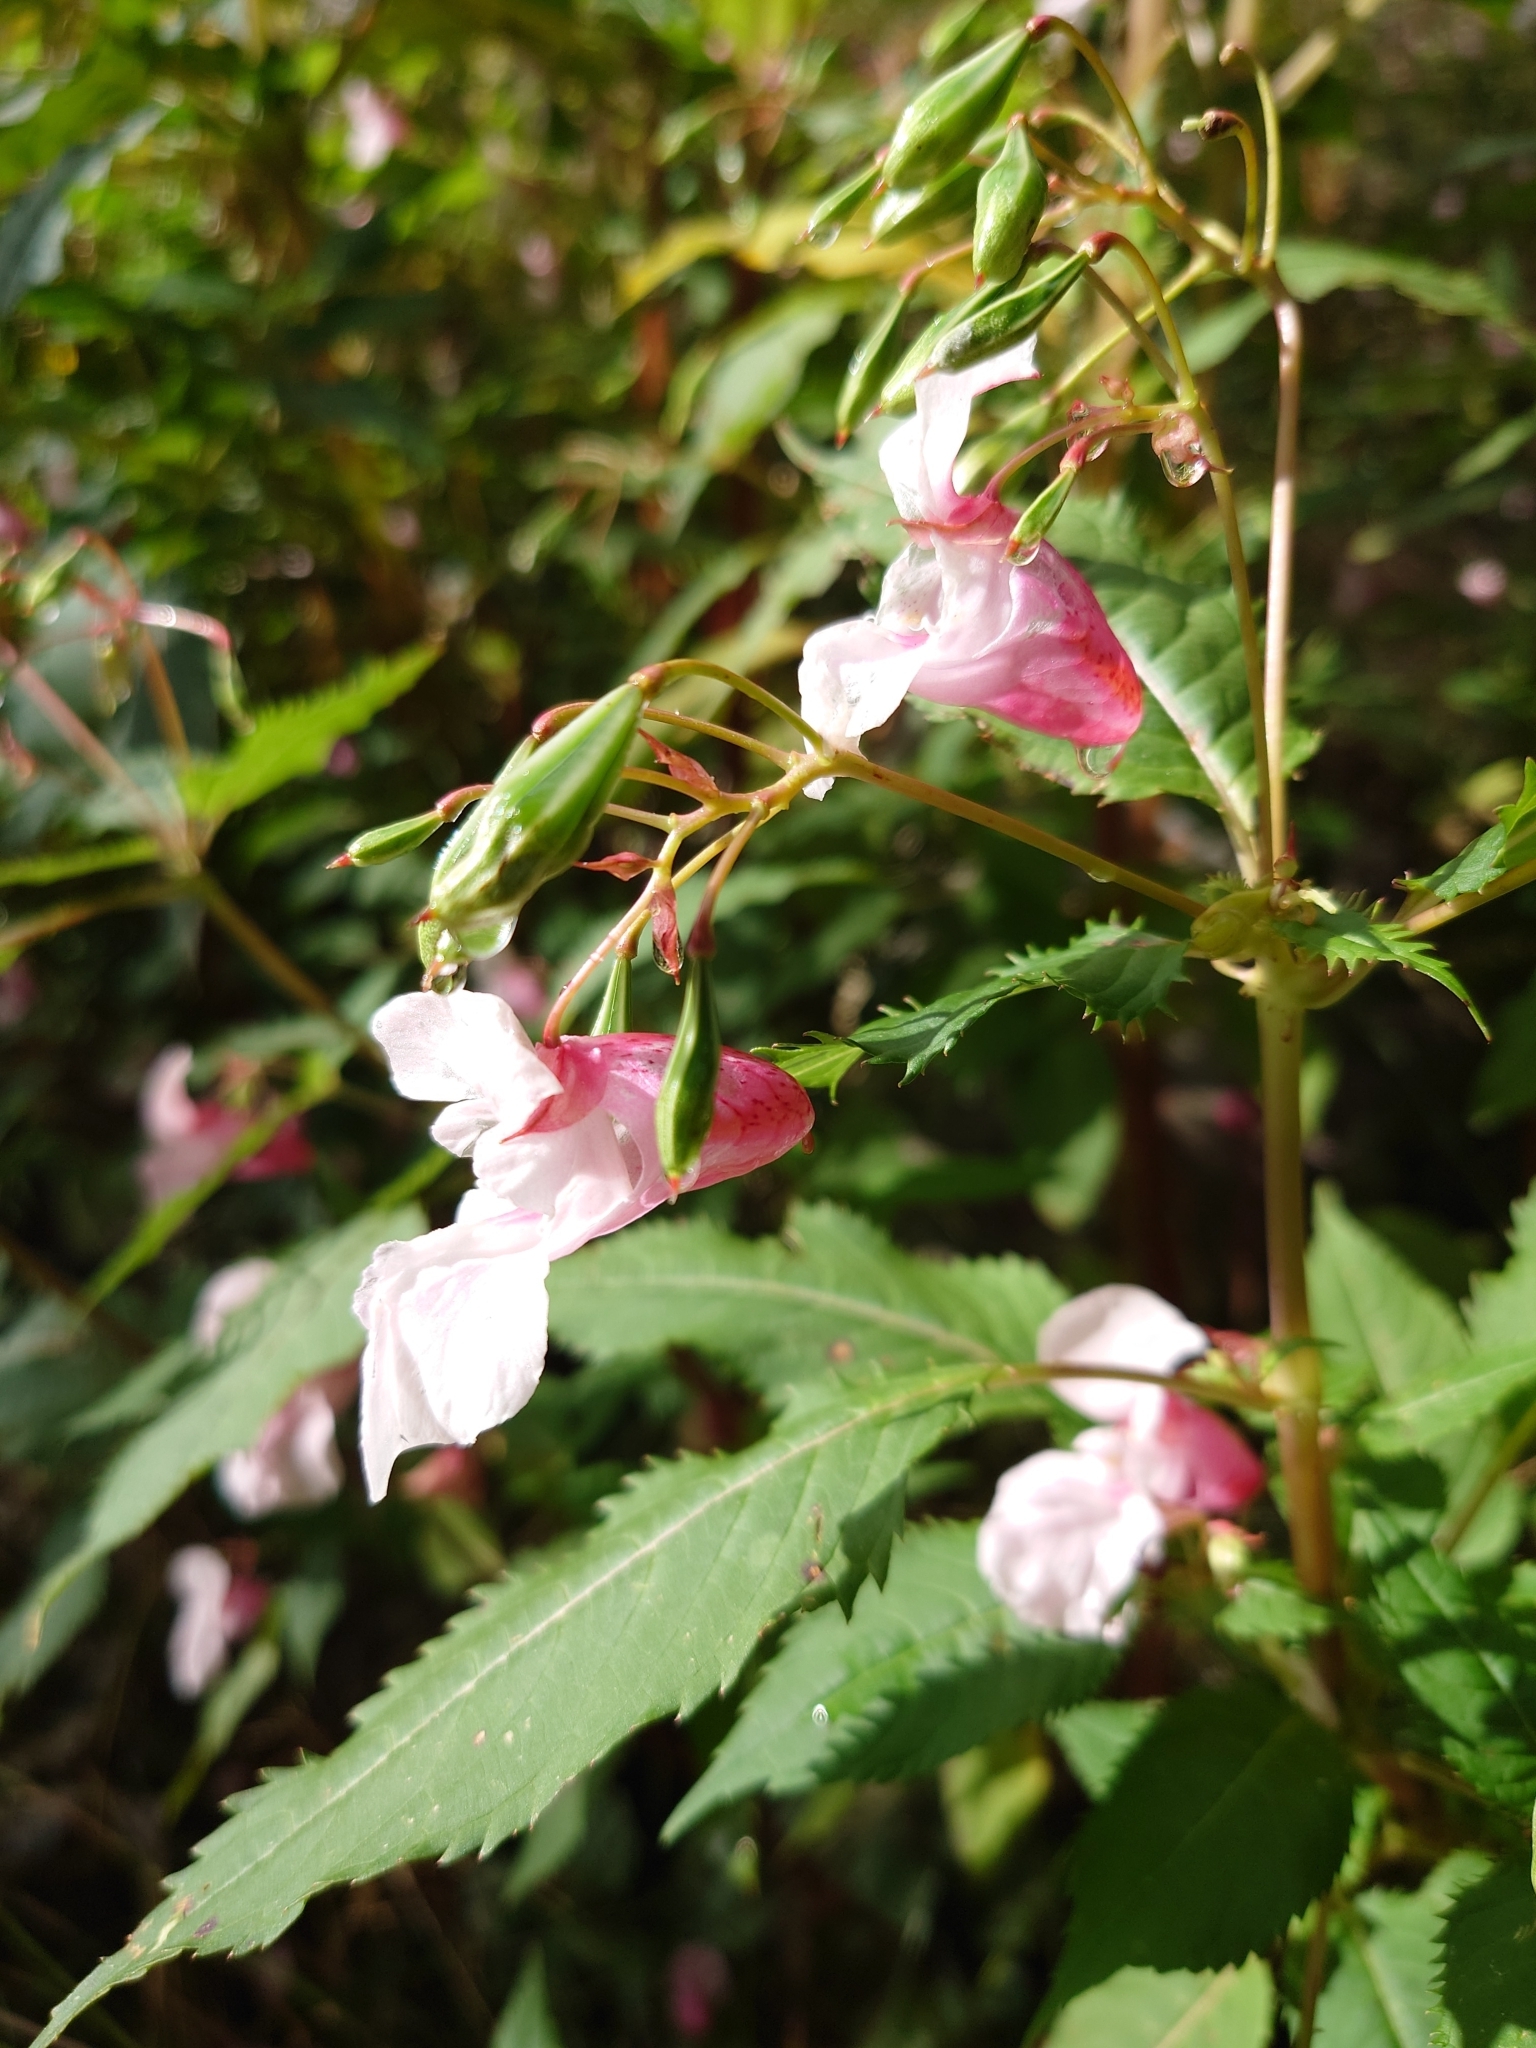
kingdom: Plantae
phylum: Tracheophyta
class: Magnoliopsida
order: Ericales
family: Balsaminaceae
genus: Impatiens
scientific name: Impatiens glandulifera
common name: Himalayan balsam
